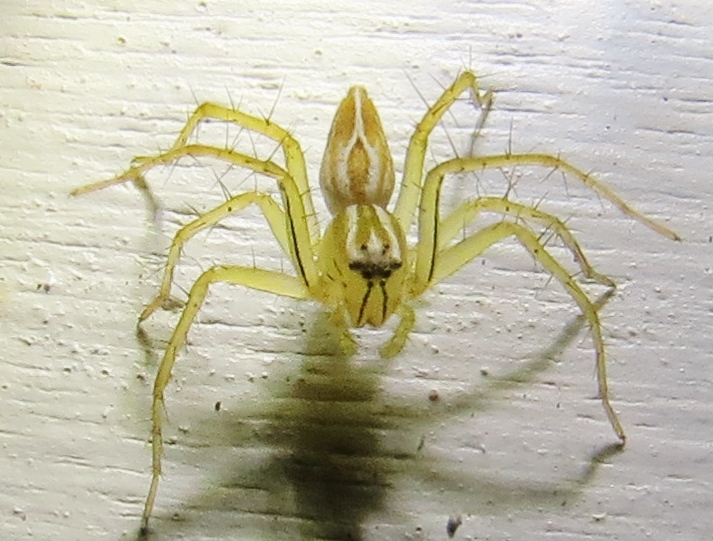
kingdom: Animalia
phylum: Arthropoda
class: Arachnida
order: Araneae
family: Oxyopidae
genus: Oxyopes
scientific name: Oxyopes salticus
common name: Lynx spiders
